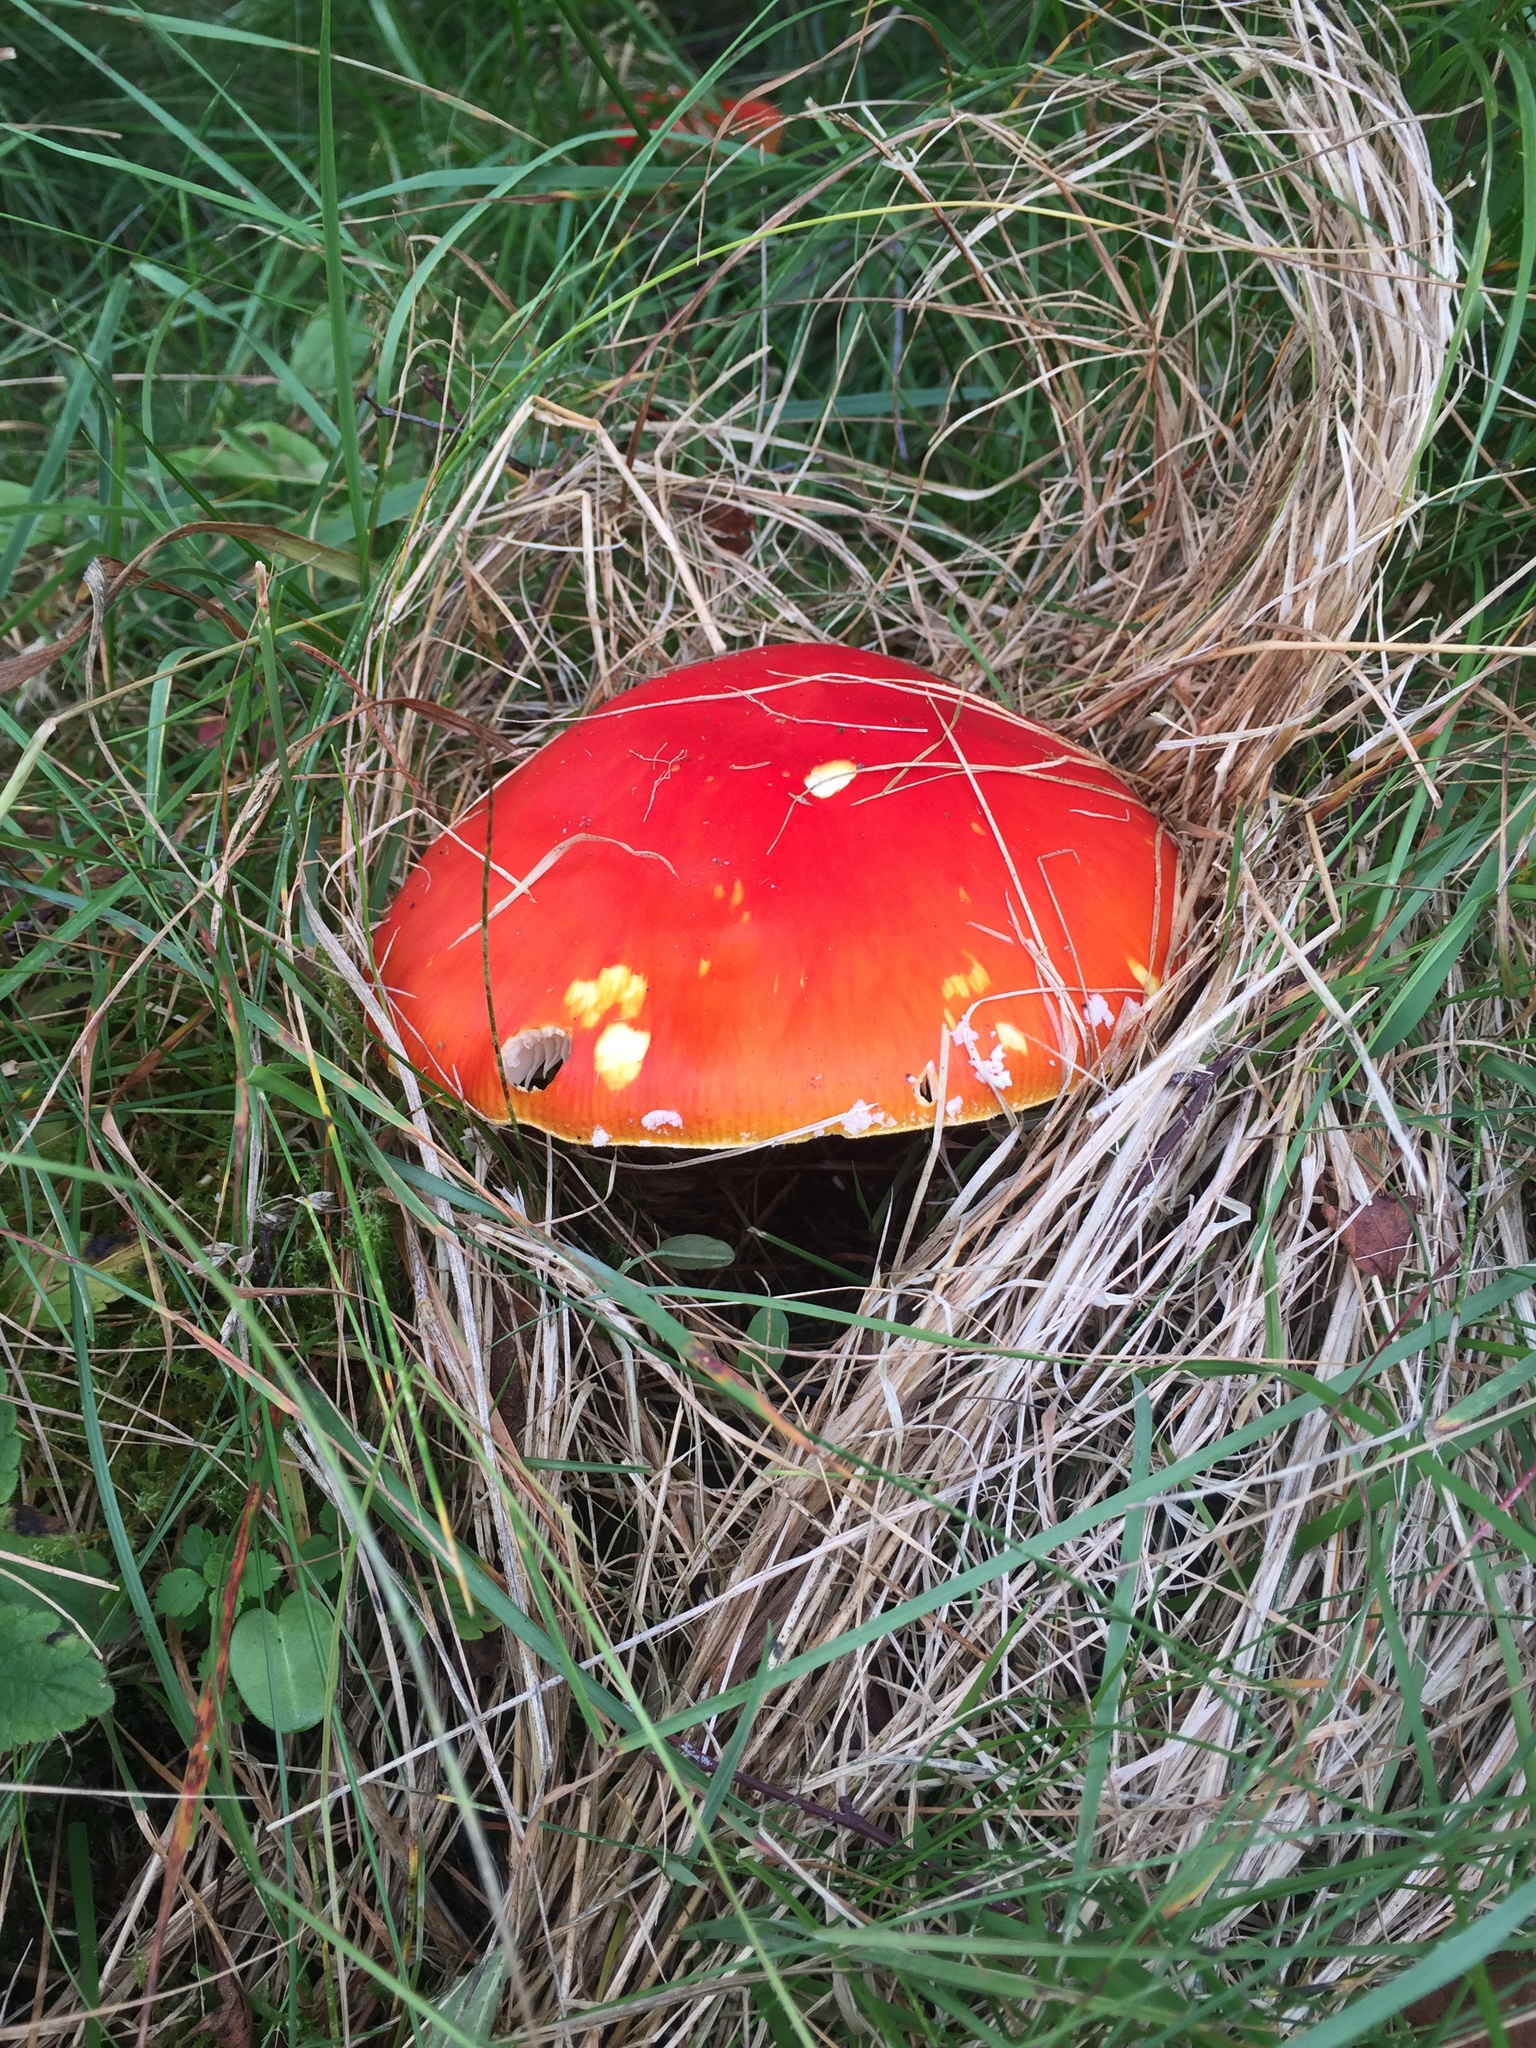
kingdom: Fungi
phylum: Basidiomycota
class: Agaricomycetes
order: Agaricales
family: Amanitaceae
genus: Amanita
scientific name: Amanita muscaria
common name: Fly agaric
